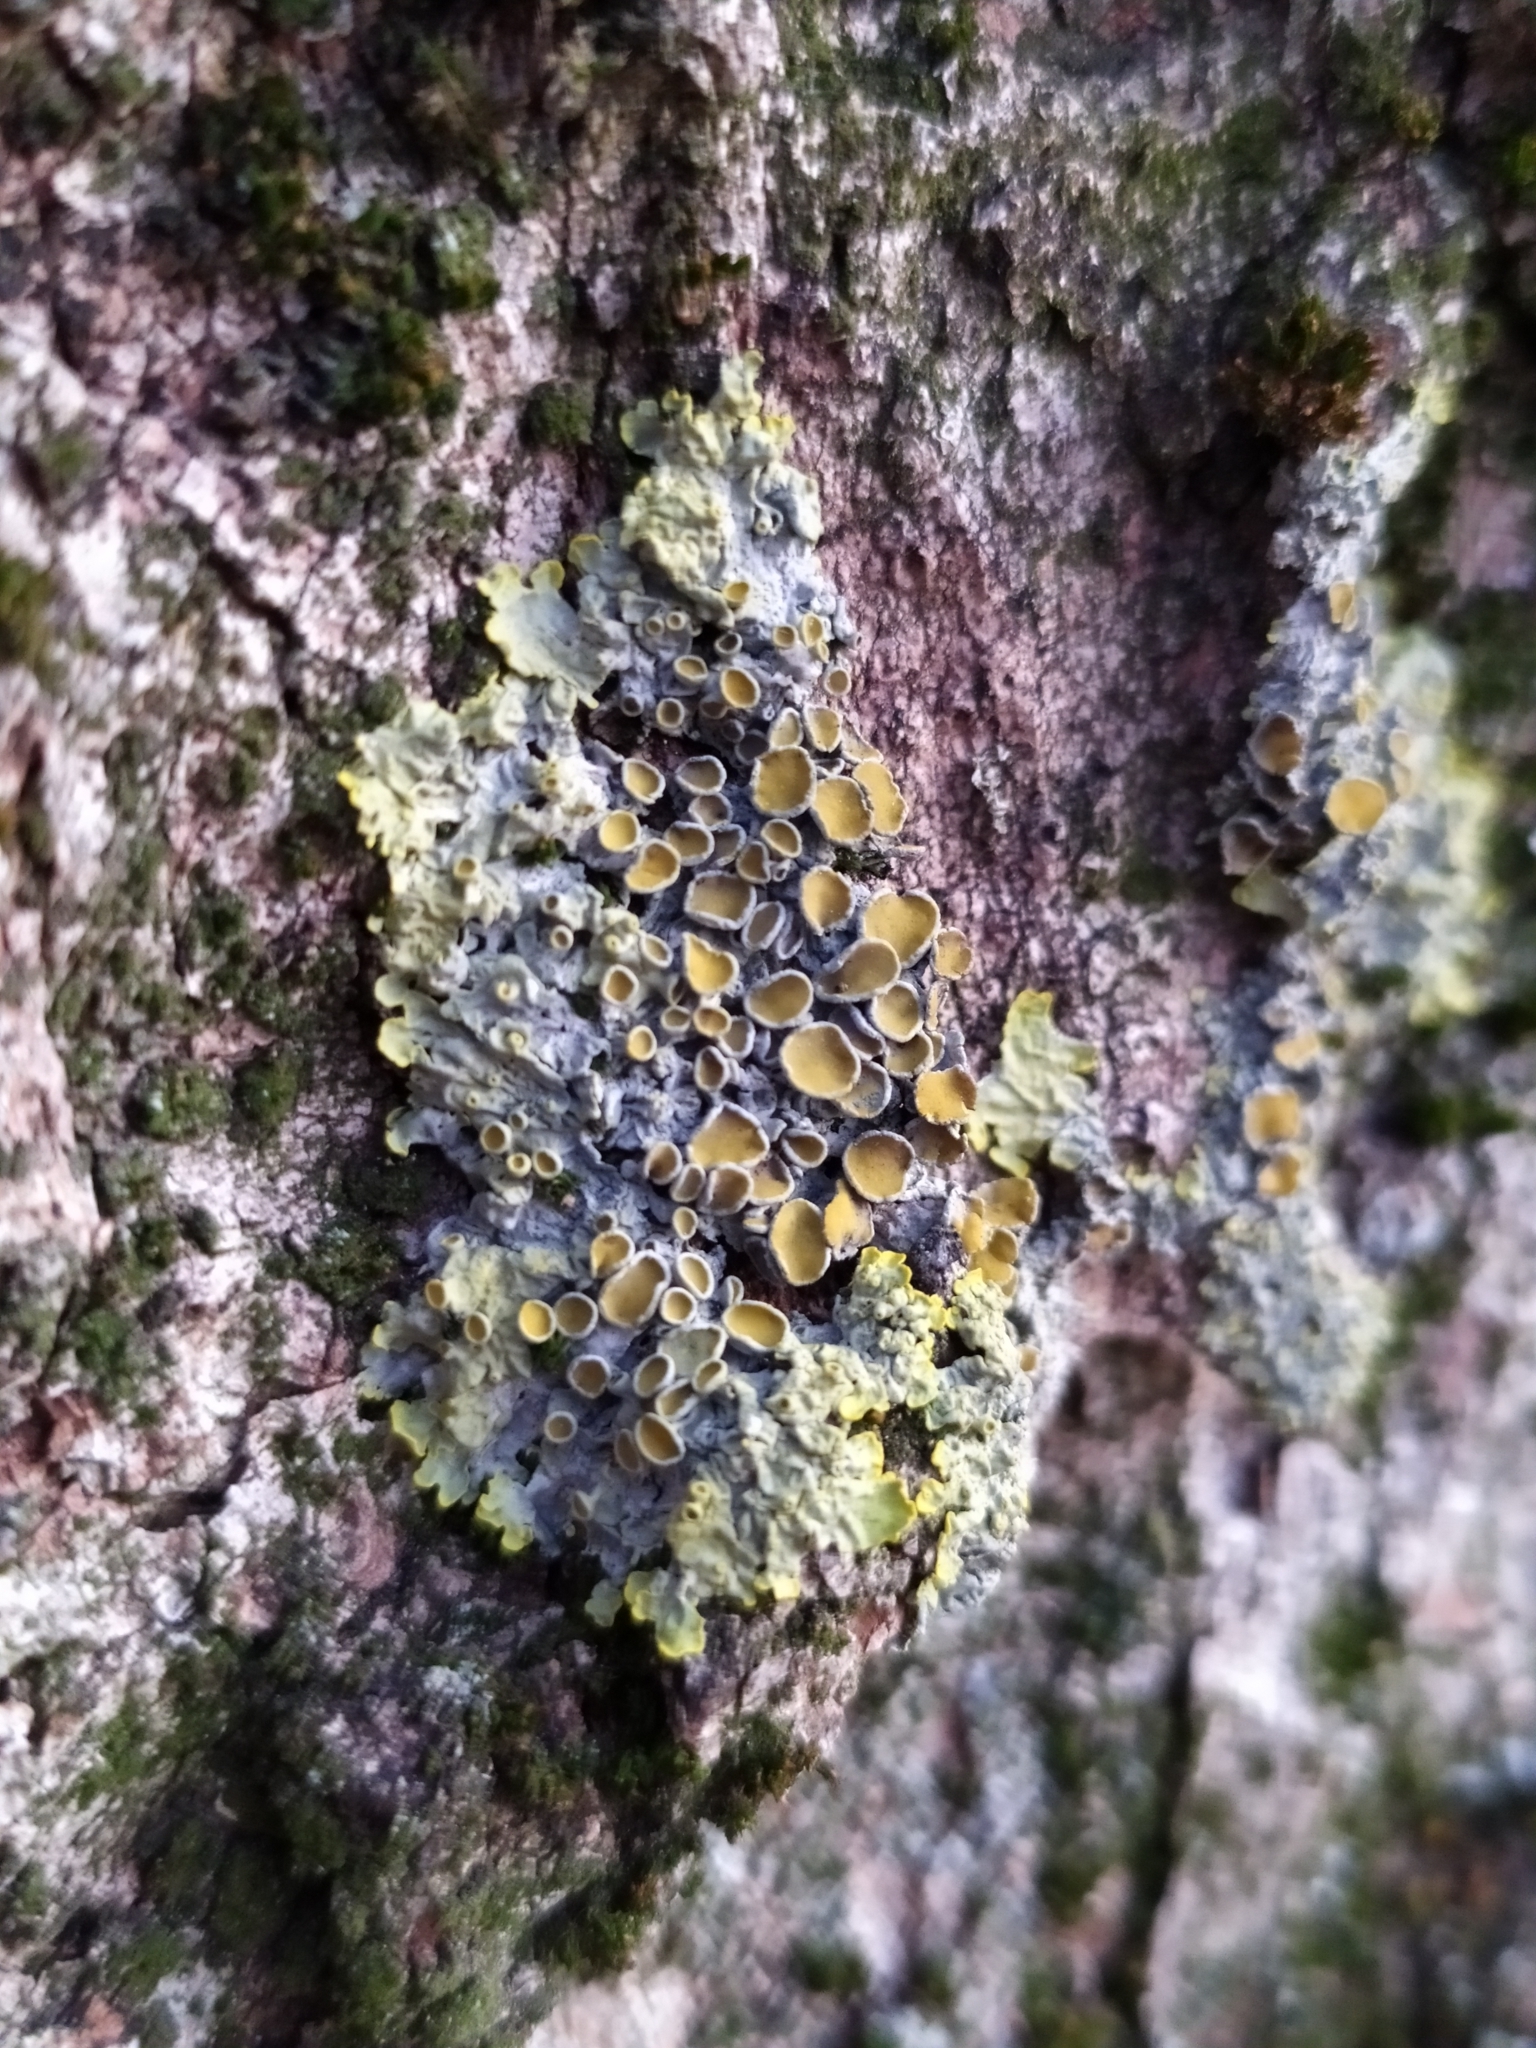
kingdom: Fungi
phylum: Ascomycota
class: Lecanoromycetes
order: Teloschistales
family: Teloschistaceae
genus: Xanthoria
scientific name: Xanthoria parietina
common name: Common orange lichen
